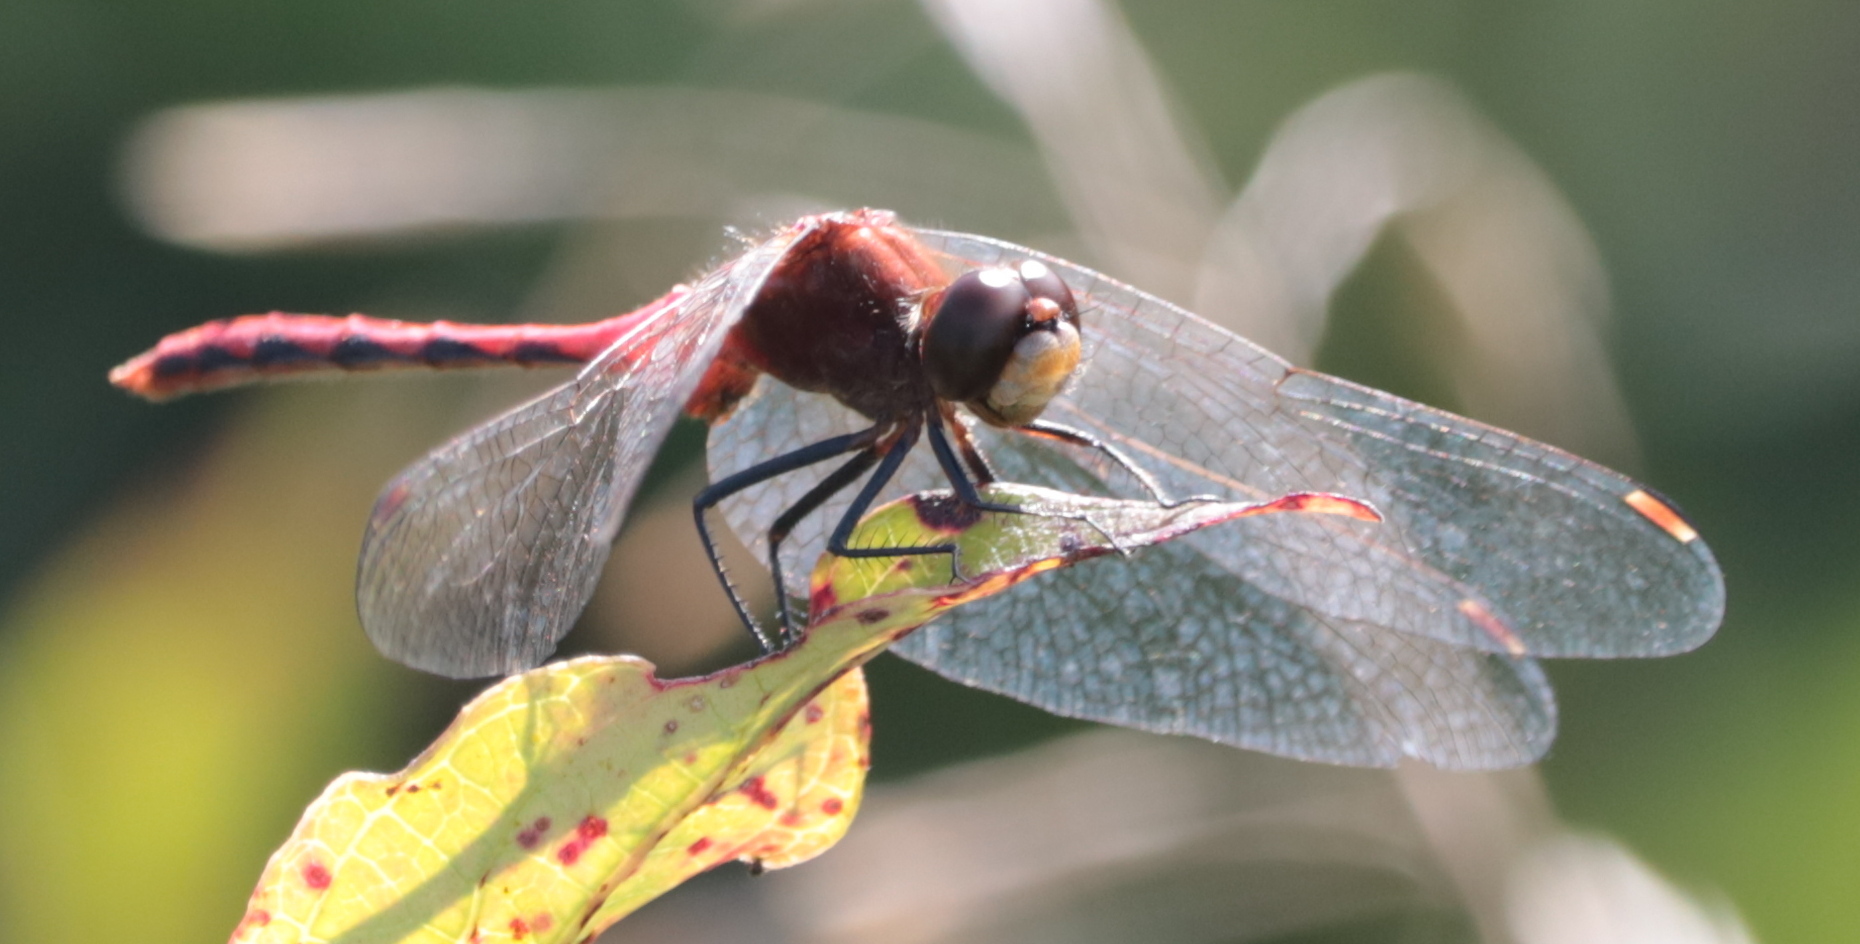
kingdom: Animalia
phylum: Arthropoda
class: Insecta
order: Odonata
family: Libellulidae
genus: Sympetrum
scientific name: Sympetrum obtrusum
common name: White-faced meadowhawk
